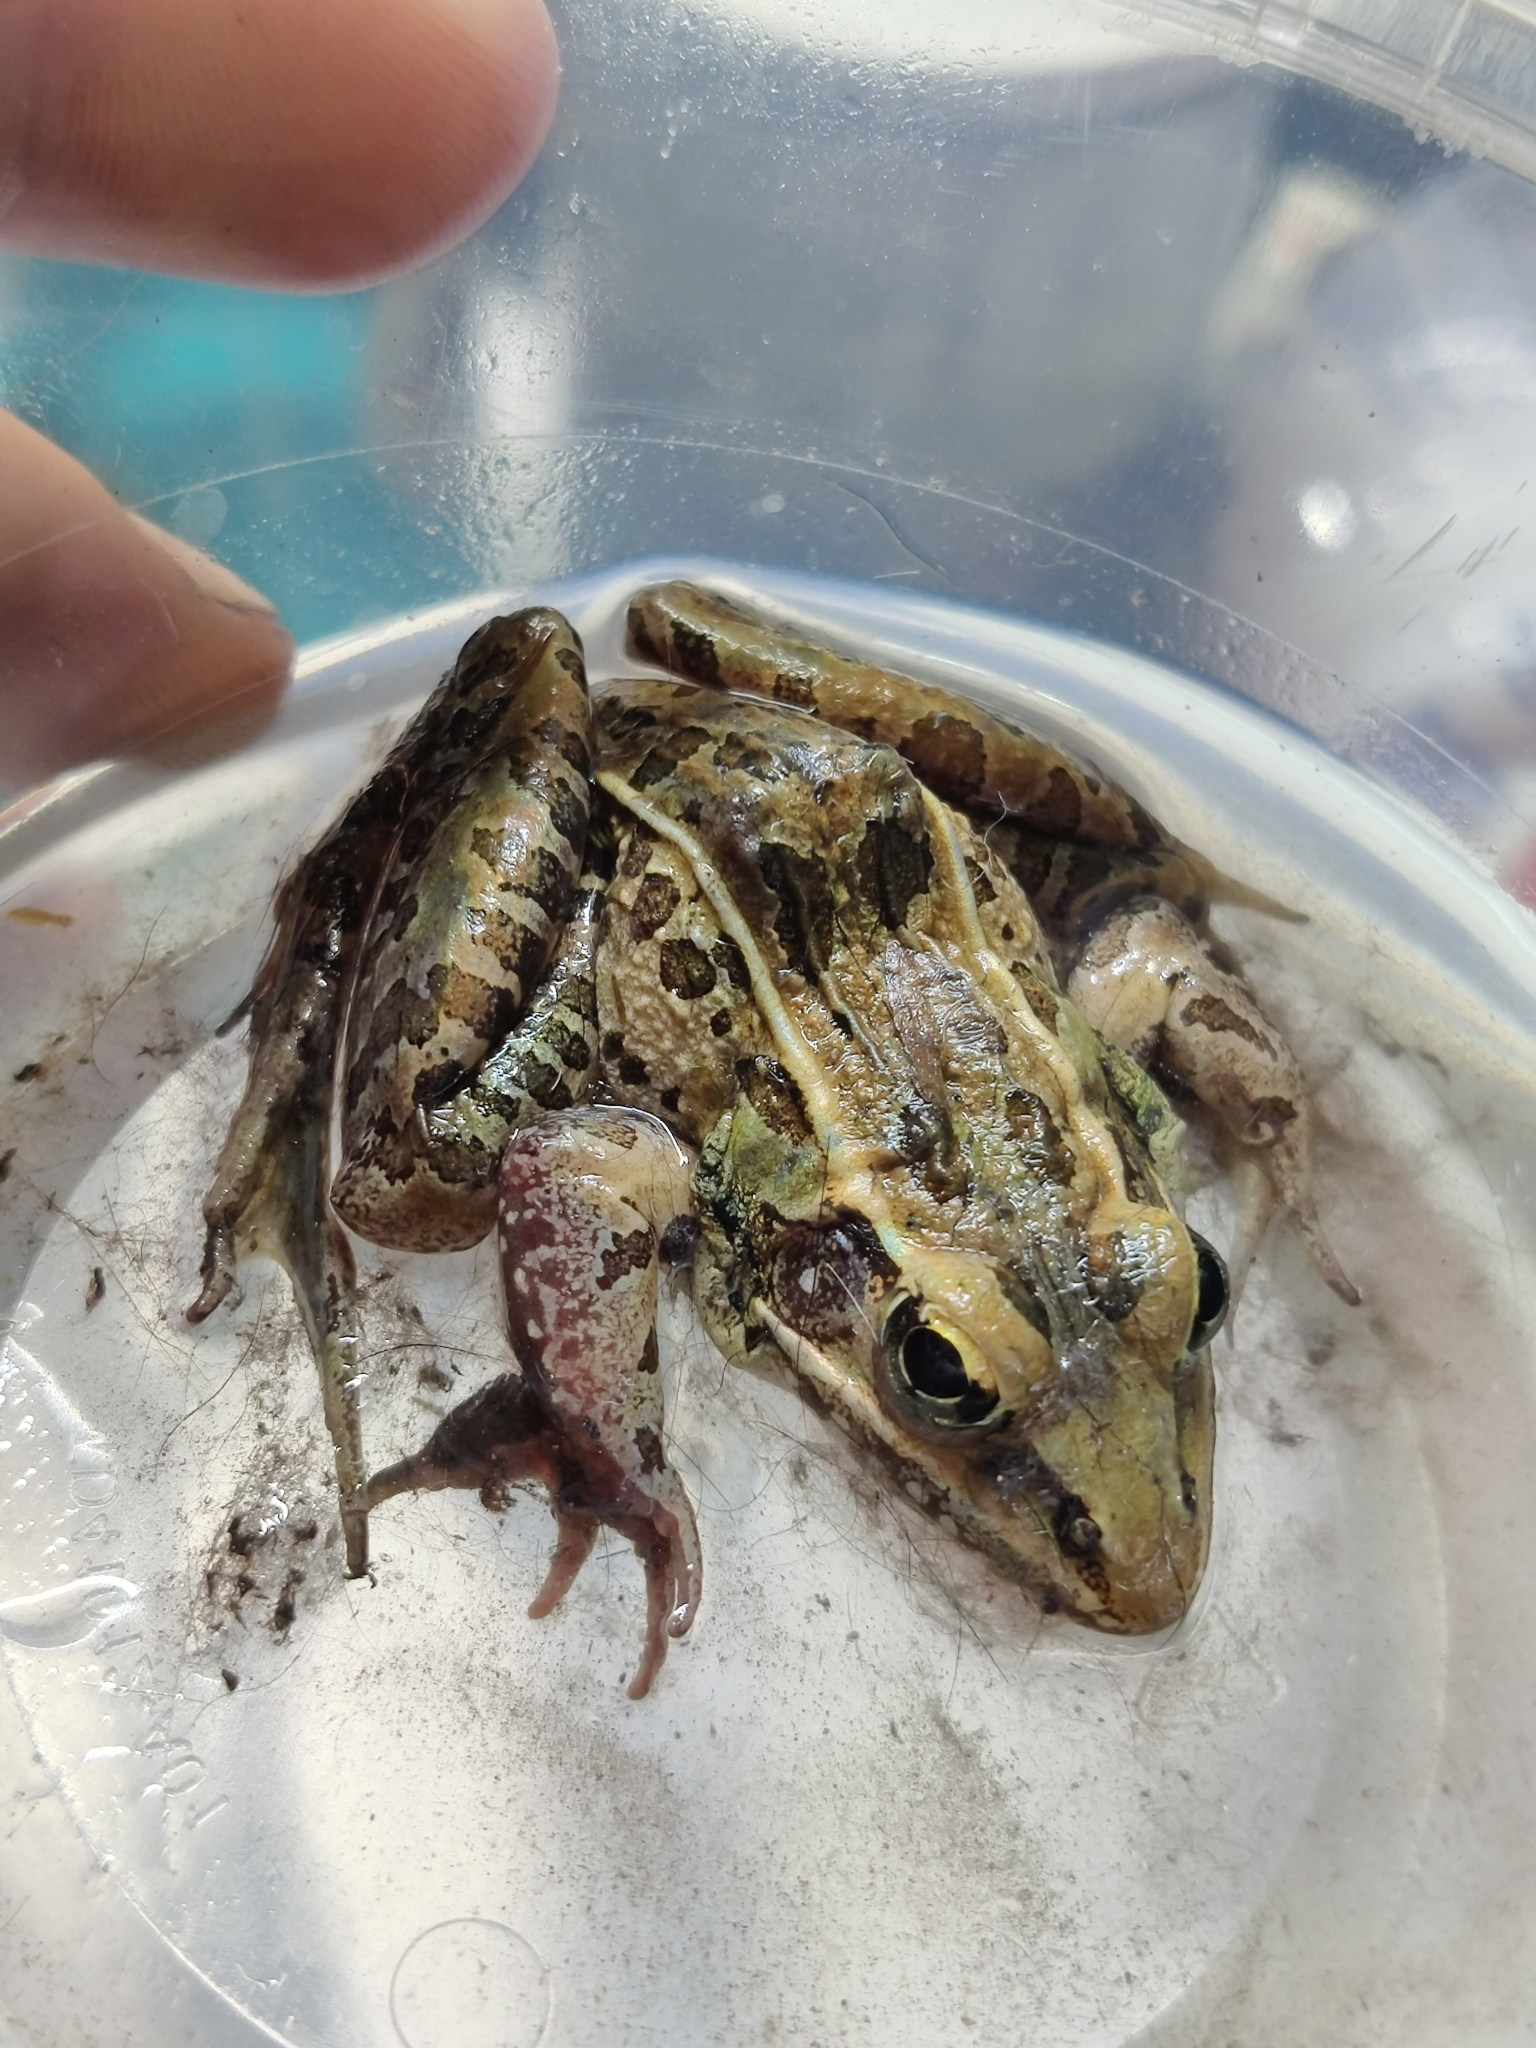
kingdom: Animalia
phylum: Chordata
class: Amphibia
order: Anura
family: Ranidae
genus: Lithobates
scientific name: Lithobates sphenocephalus
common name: Southern leopard frog
